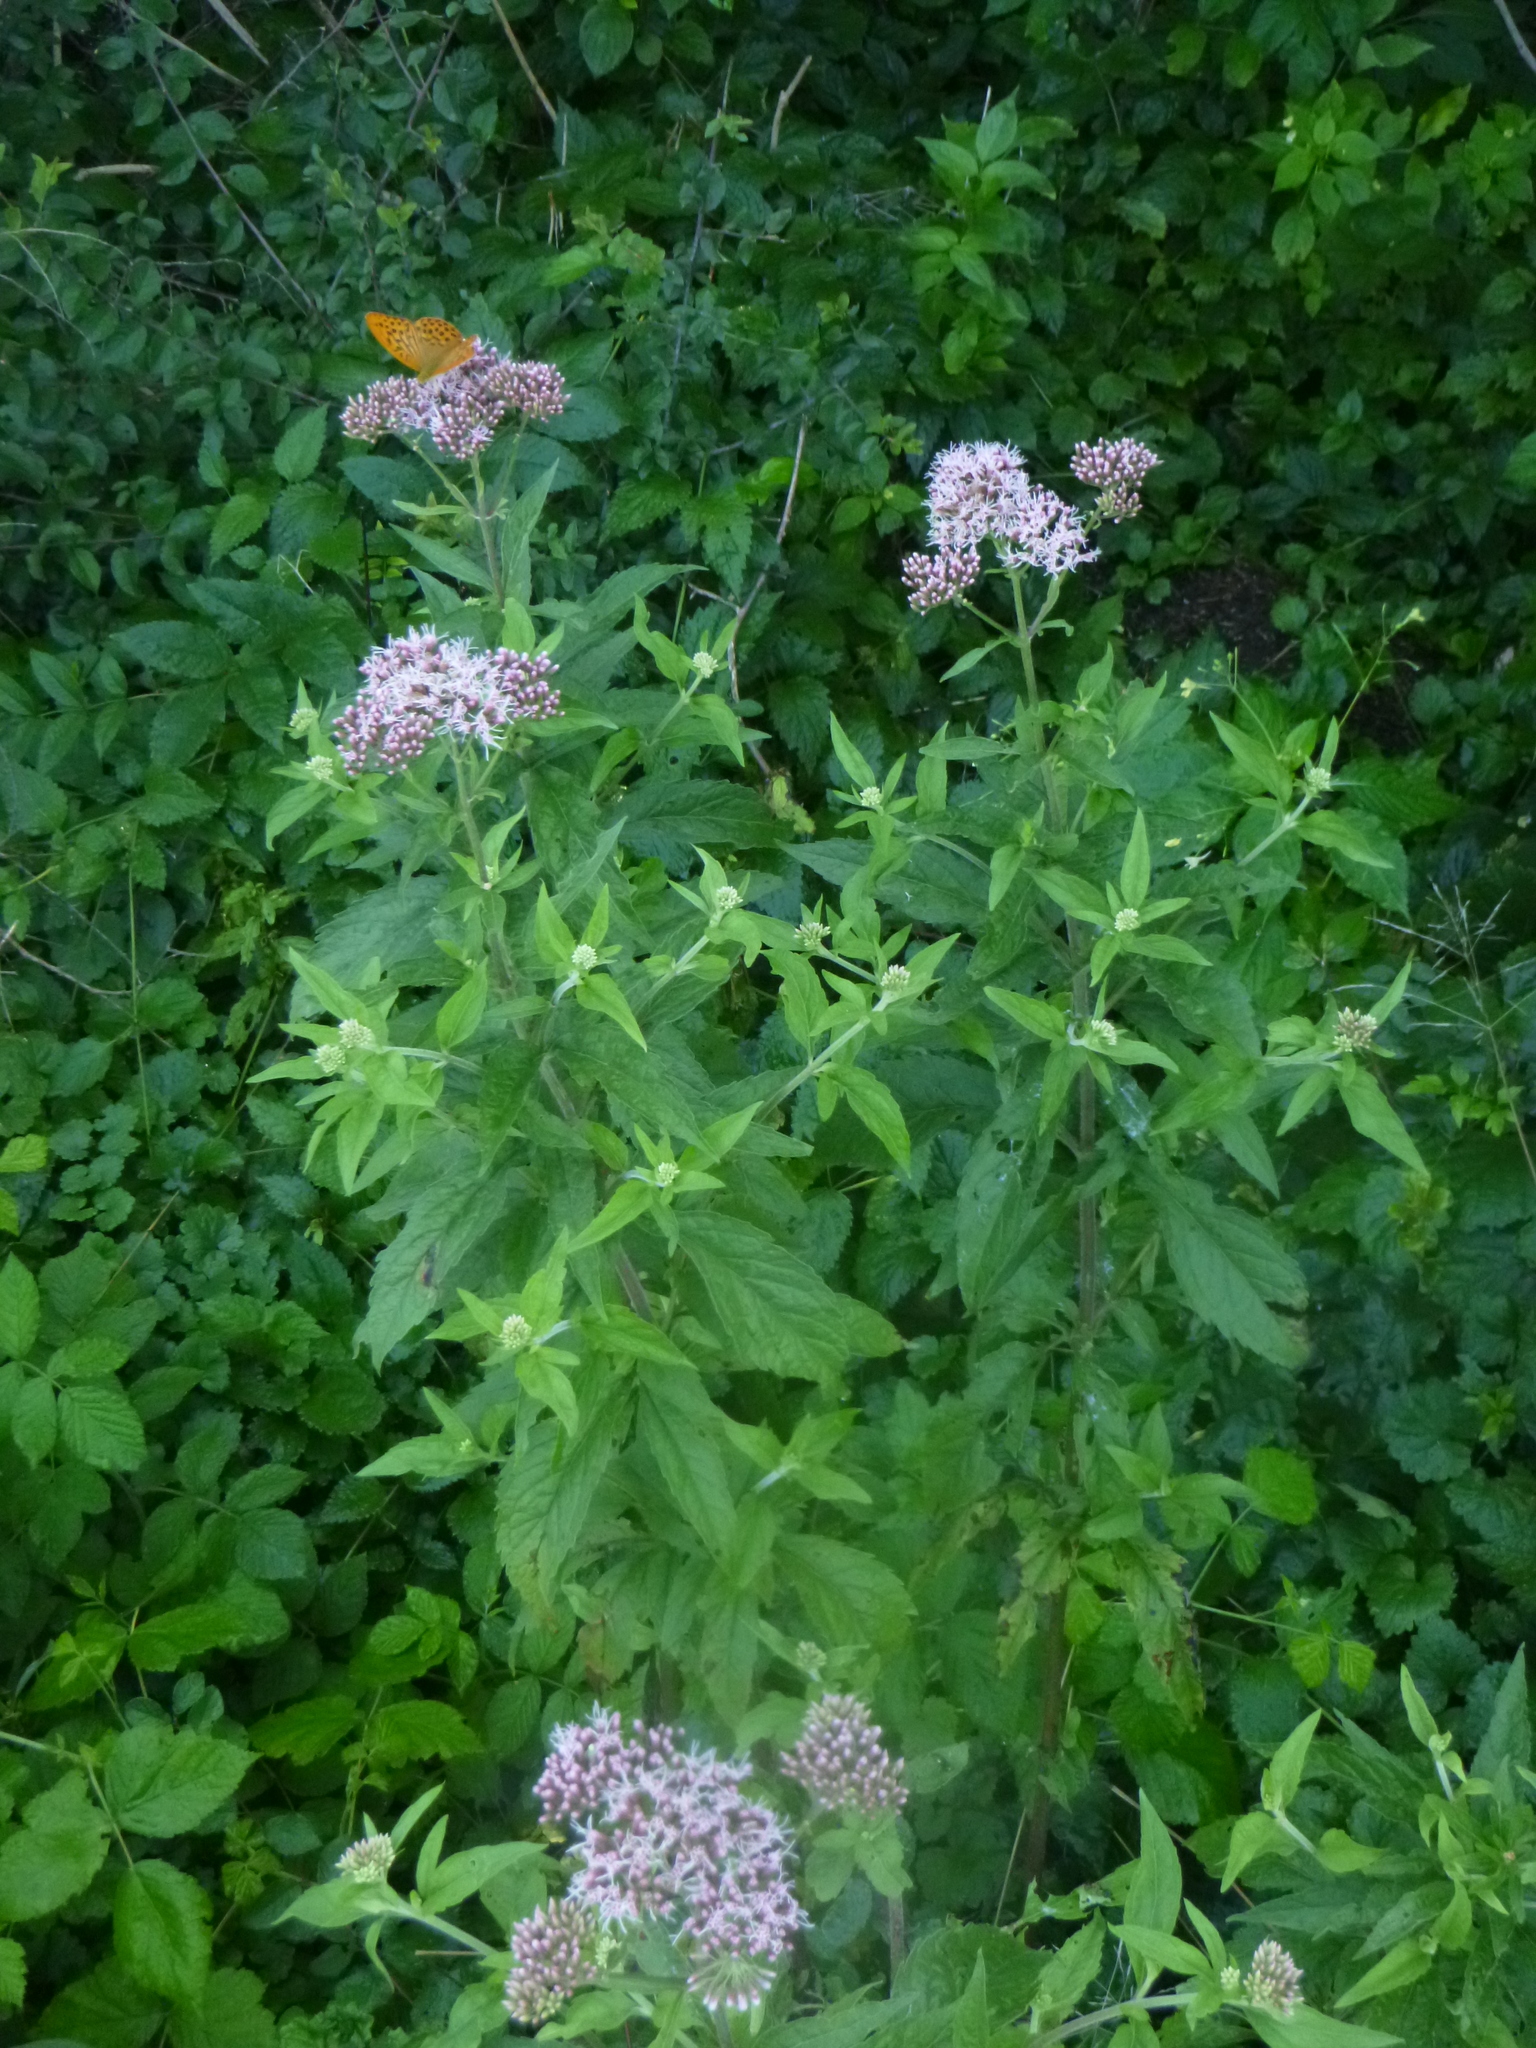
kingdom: Plantae
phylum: Tracheophyta
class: Magnoliopsida
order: Asterales
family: Asteraceae
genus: Eupatorium
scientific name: Eupatorium cannabinum
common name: Hemp-agrimony
